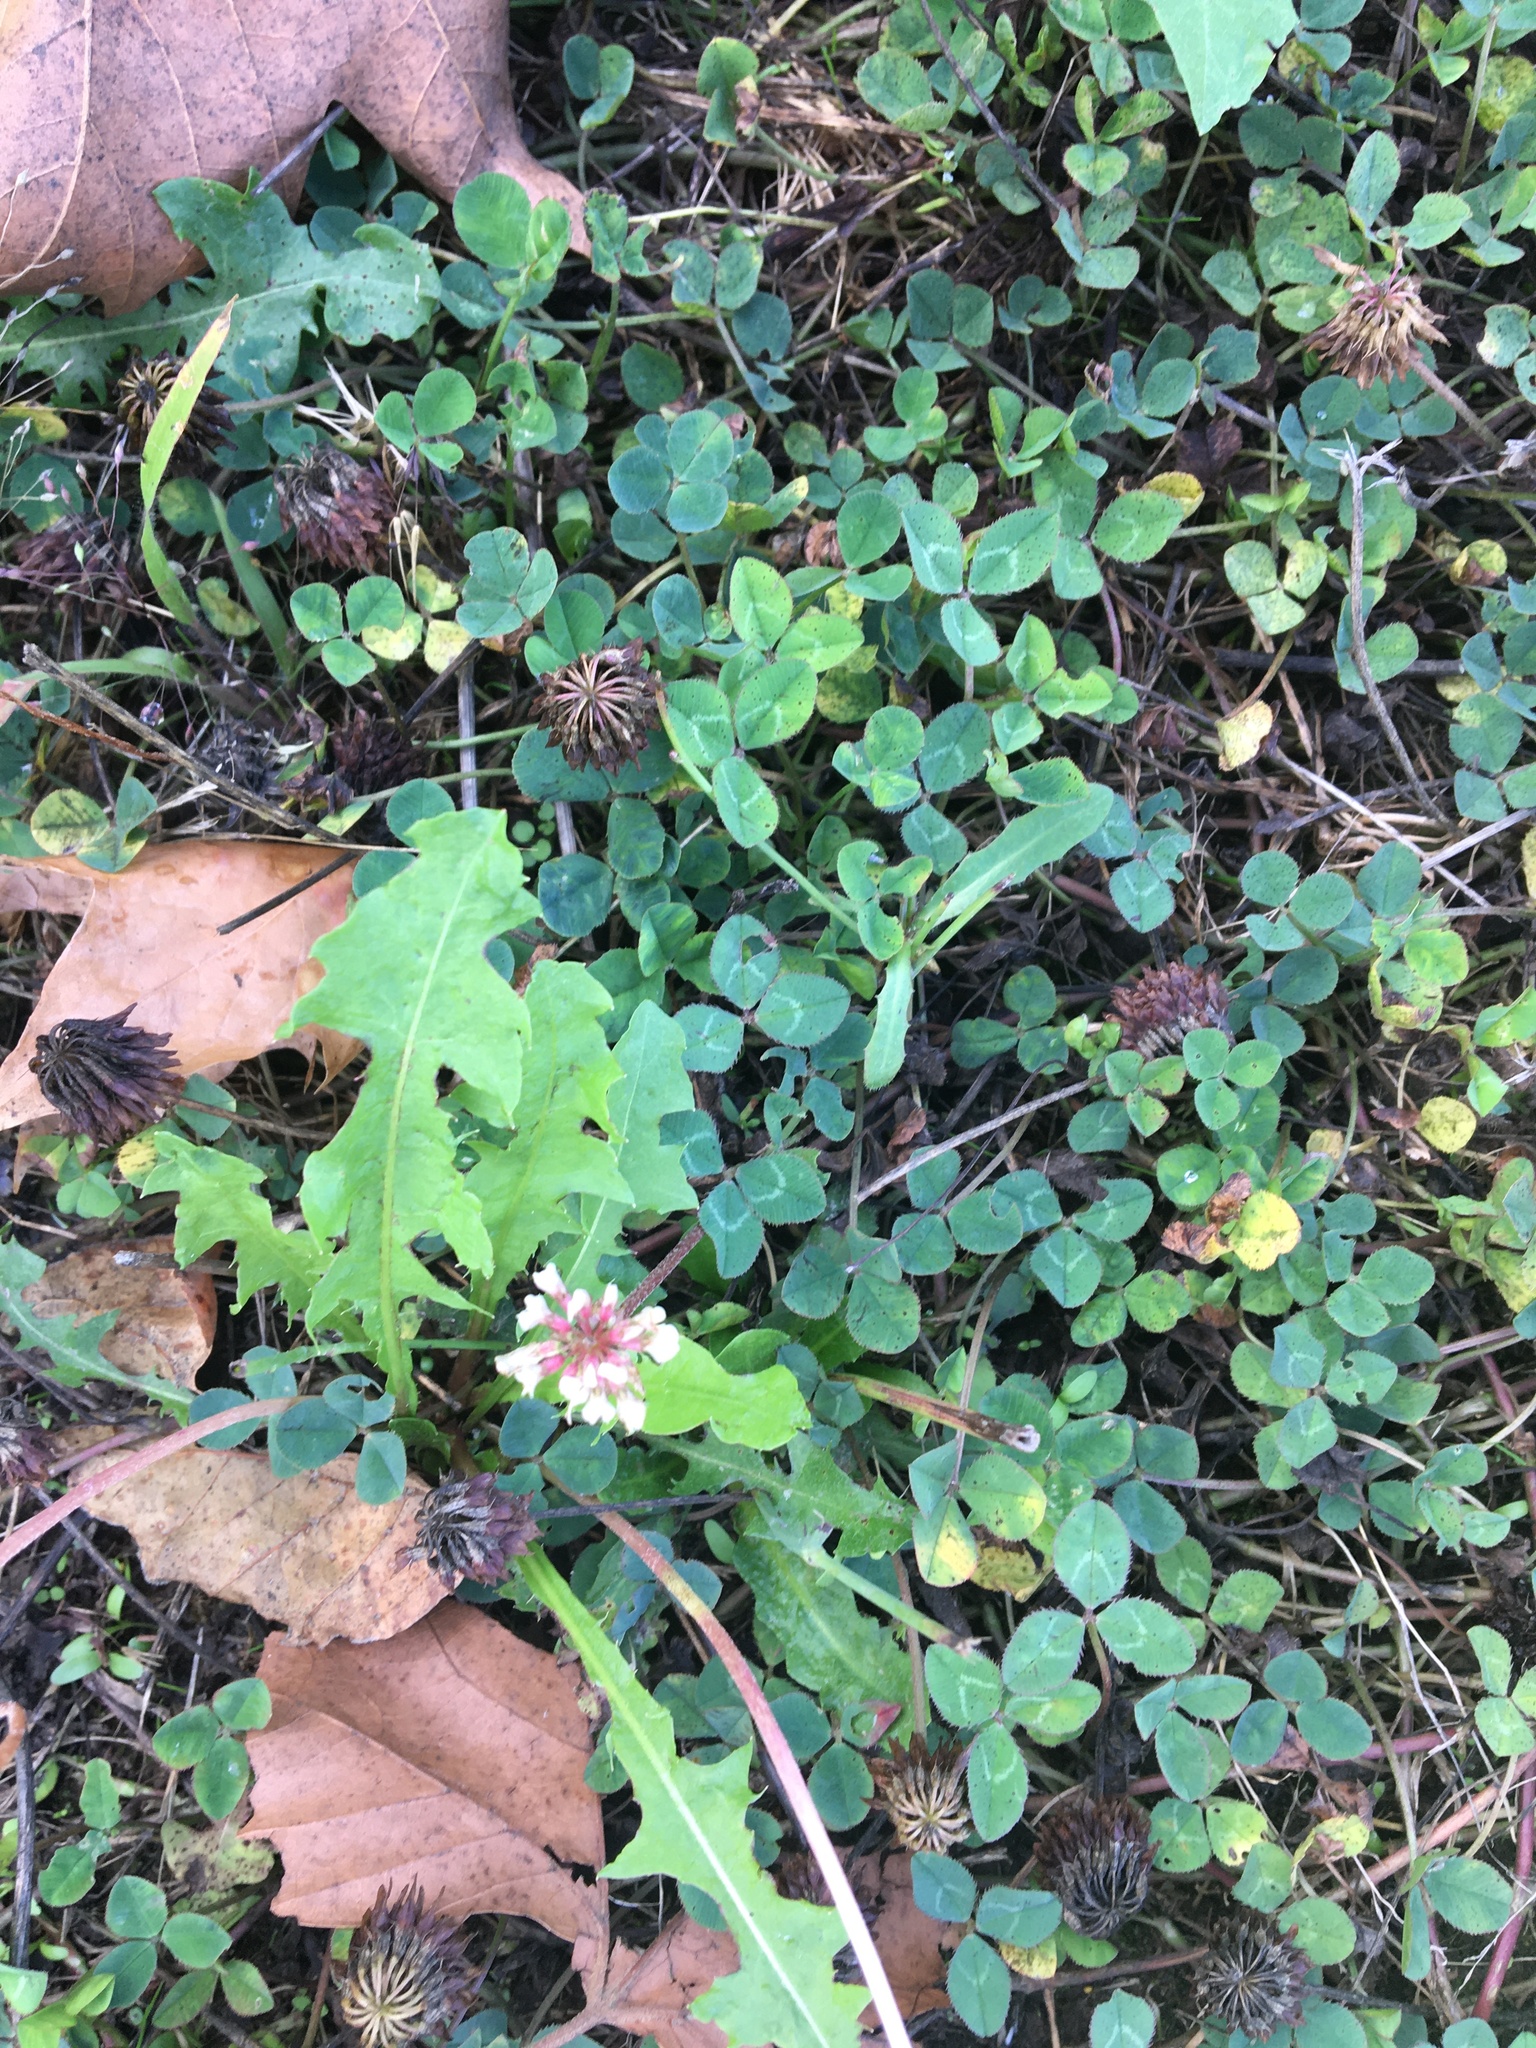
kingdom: Plantae
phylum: Tracheophyta
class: Magnoliopsida
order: Fabales
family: Fabaceae
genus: Trifolium
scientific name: Trifolium repens
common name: White clover
